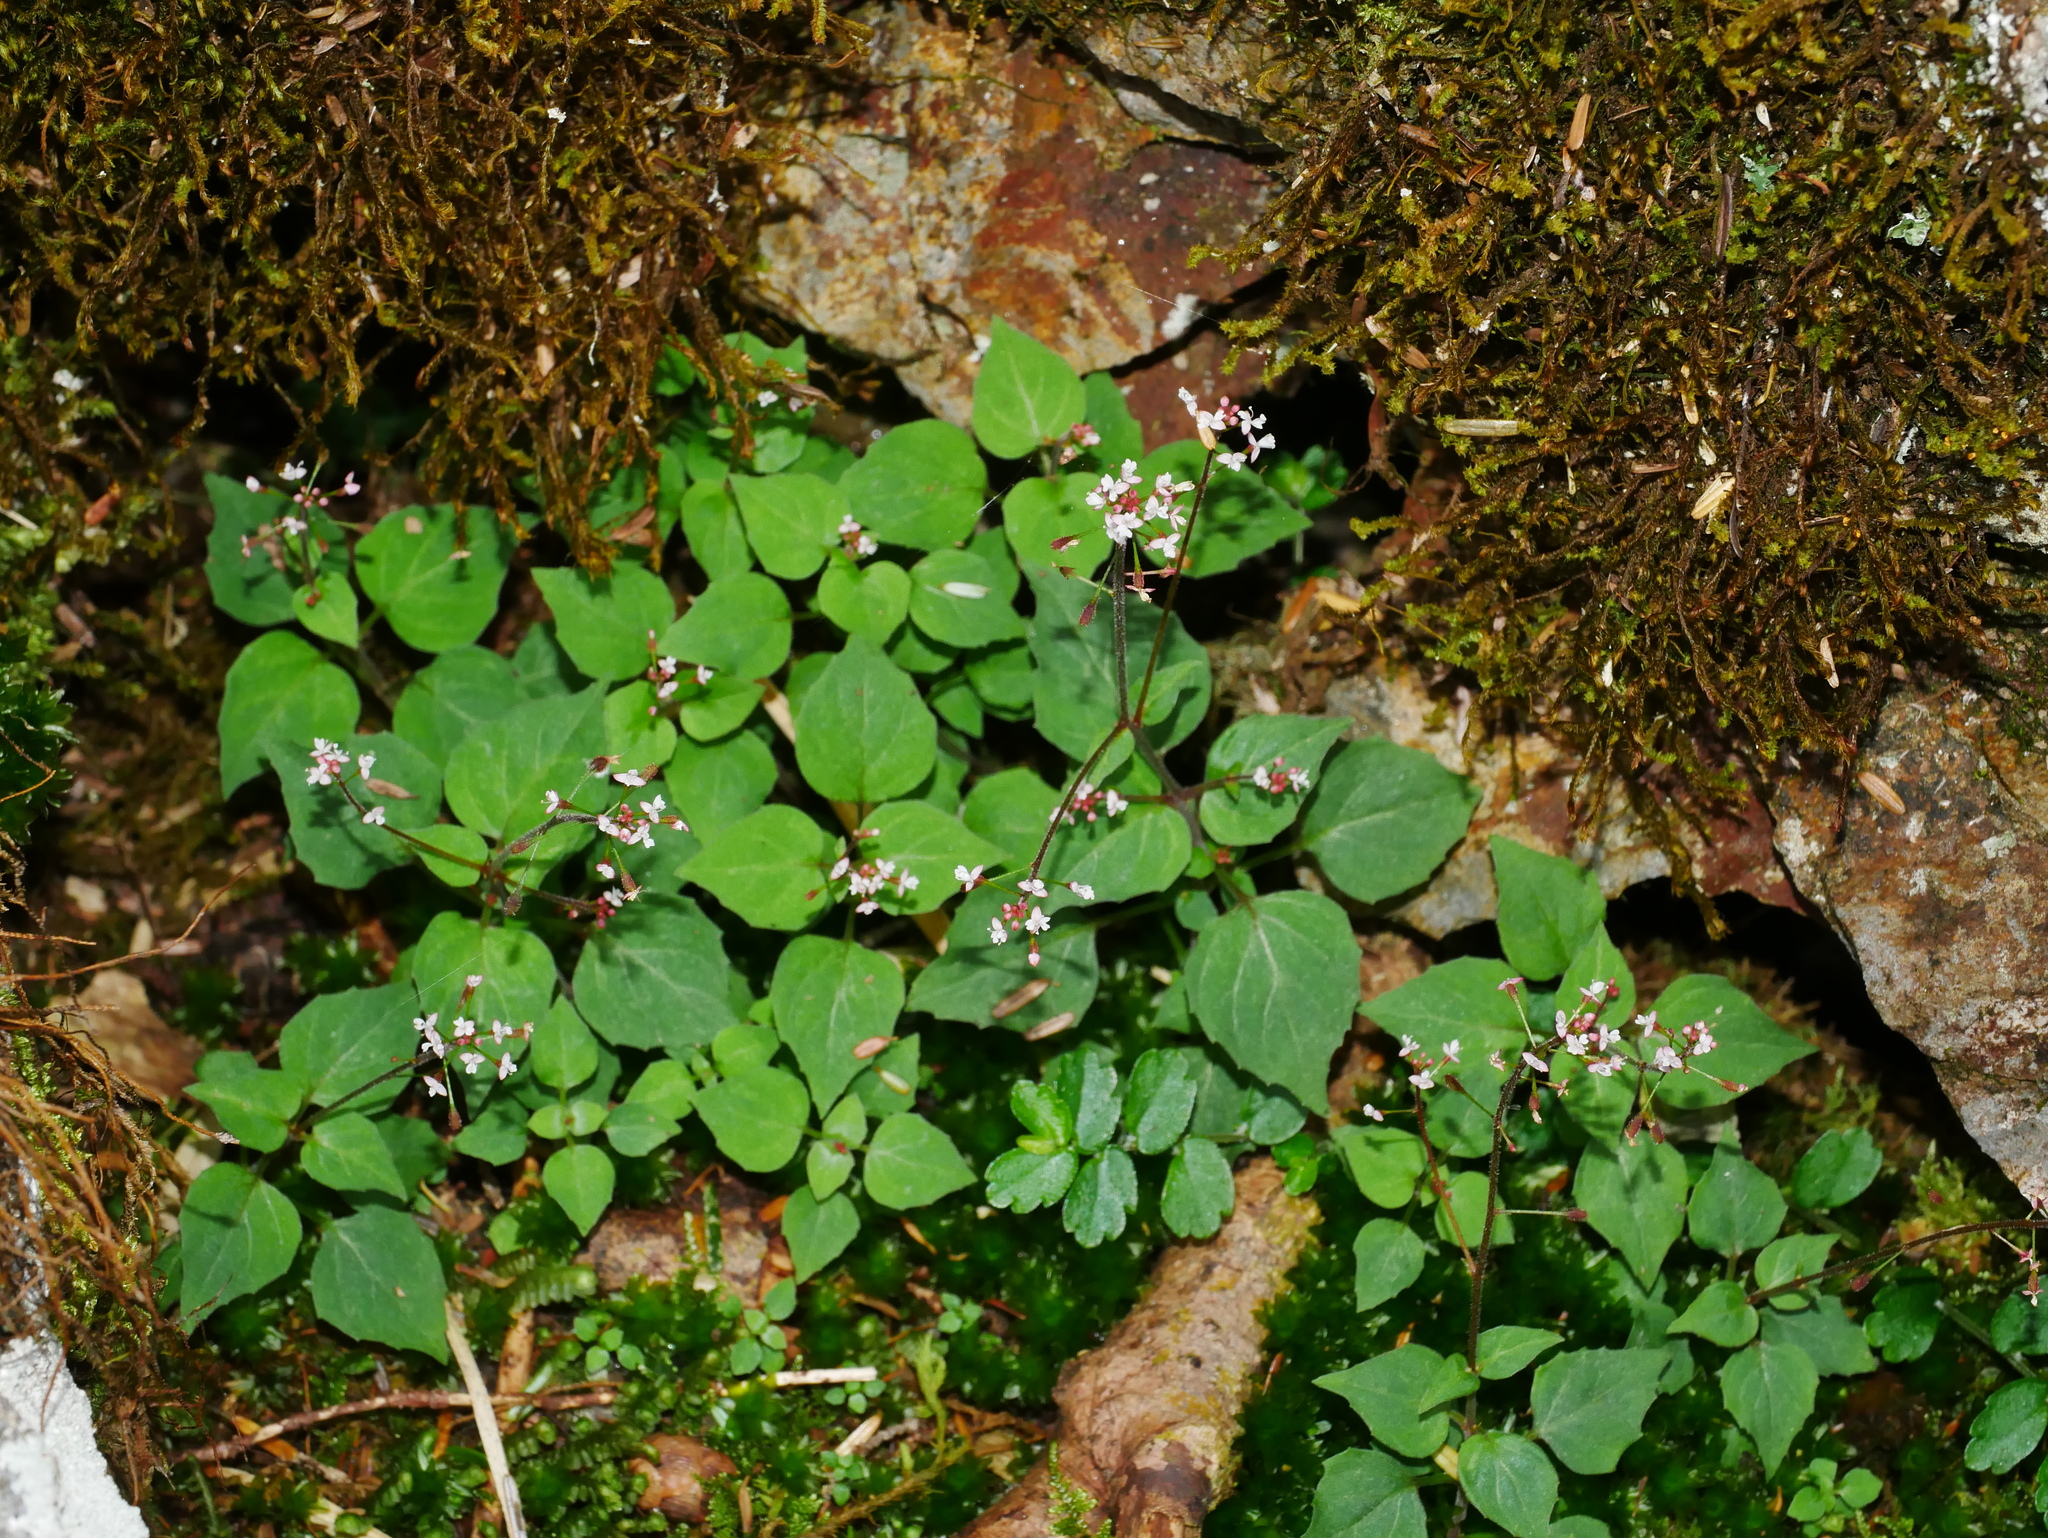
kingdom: Plantae
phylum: Tracheophyta
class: Magnoliopsida
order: Myrtales
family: Onagraceae
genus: Circaea
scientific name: Circaea alpina
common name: Alpine enchanter's-nightshade
